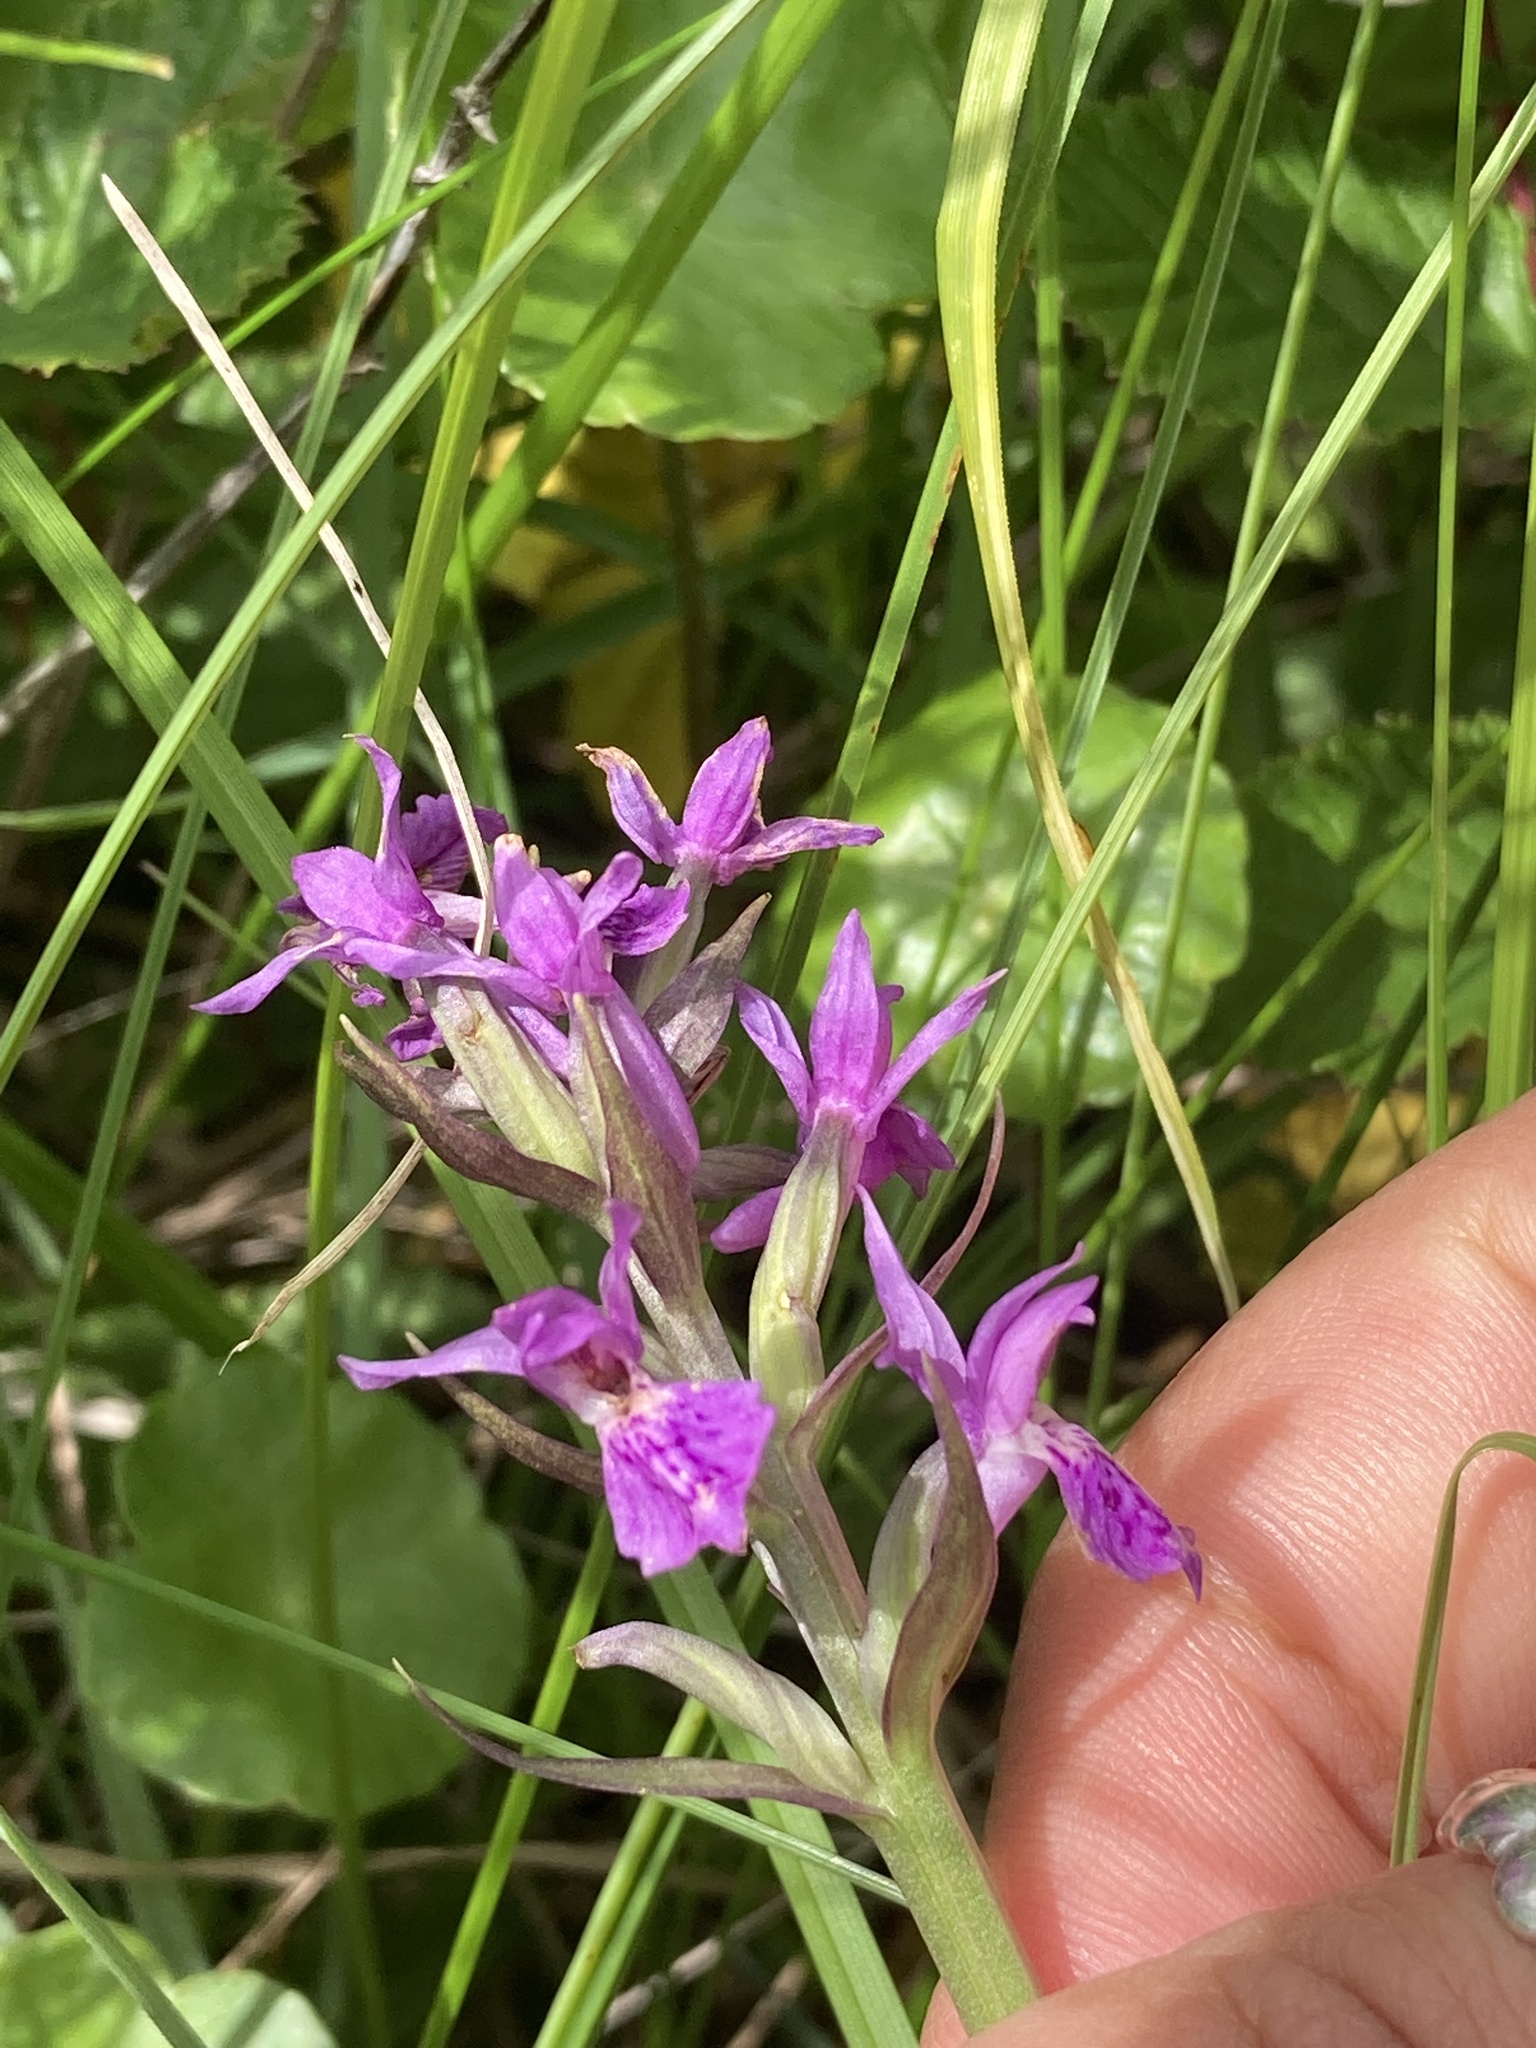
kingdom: Plantae
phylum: Tracheophyta
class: Liliopsida
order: Asparagales
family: Orchidaceae
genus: Dactylorhiza
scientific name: Dactylorhiza majalis
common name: Marsh orchid
